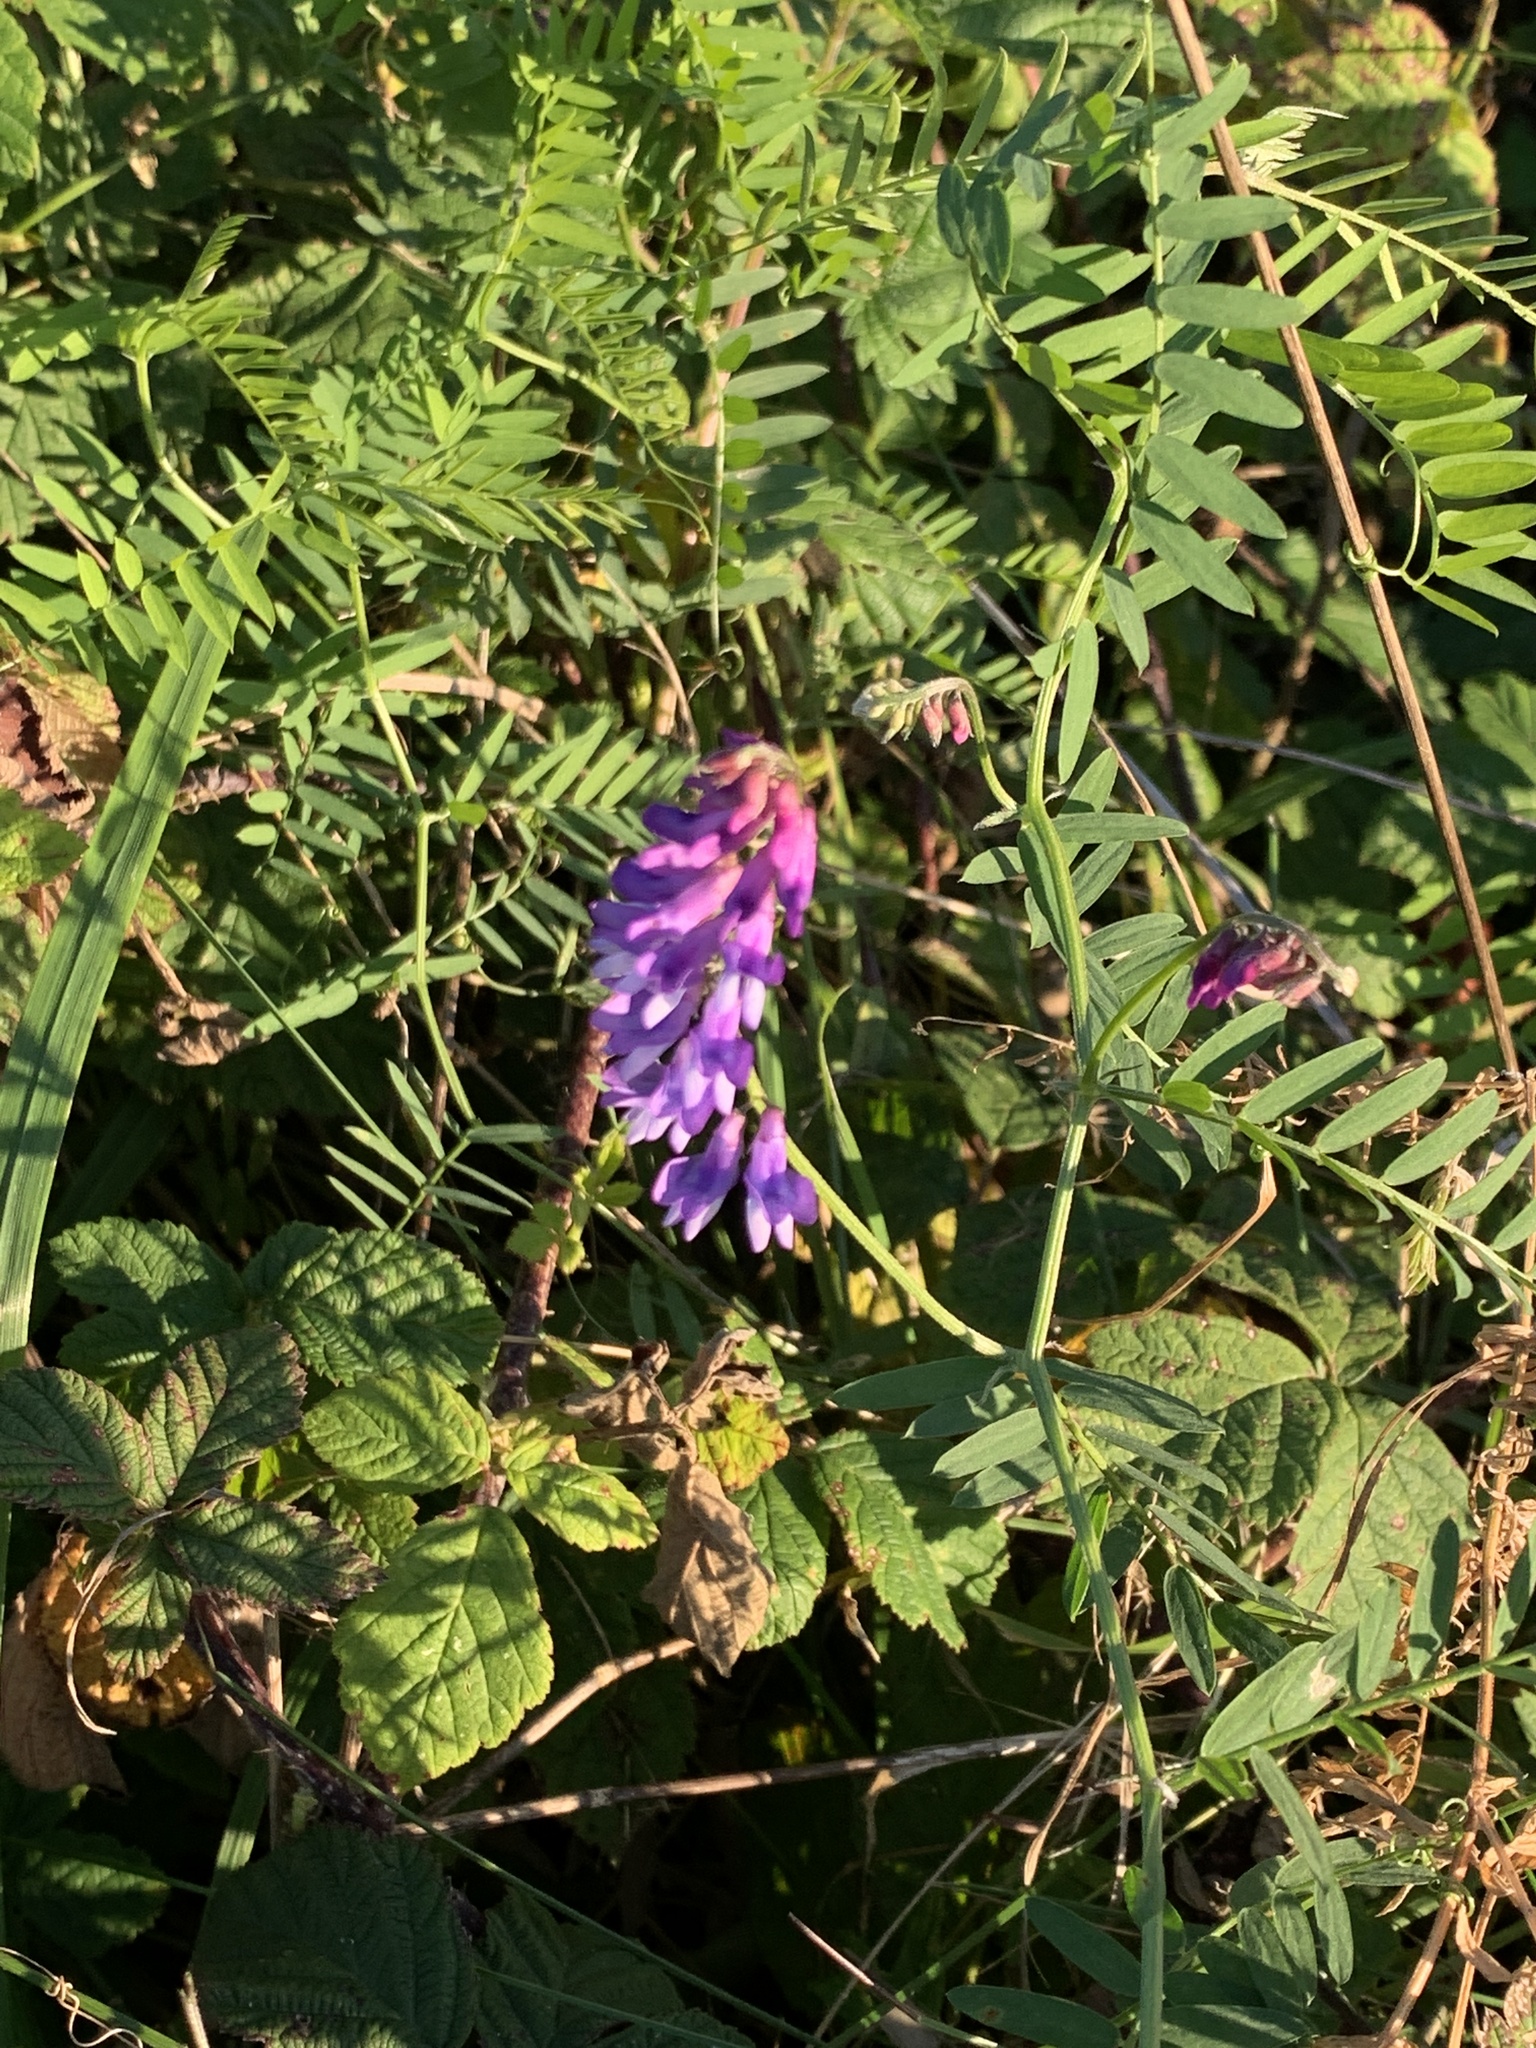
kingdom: Plantae
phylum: Tracheophyta
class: Magnoliopsida
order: Fabales
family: Fabaceae
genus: Vicia
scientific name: Vicia cracca
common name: Bird vetch
